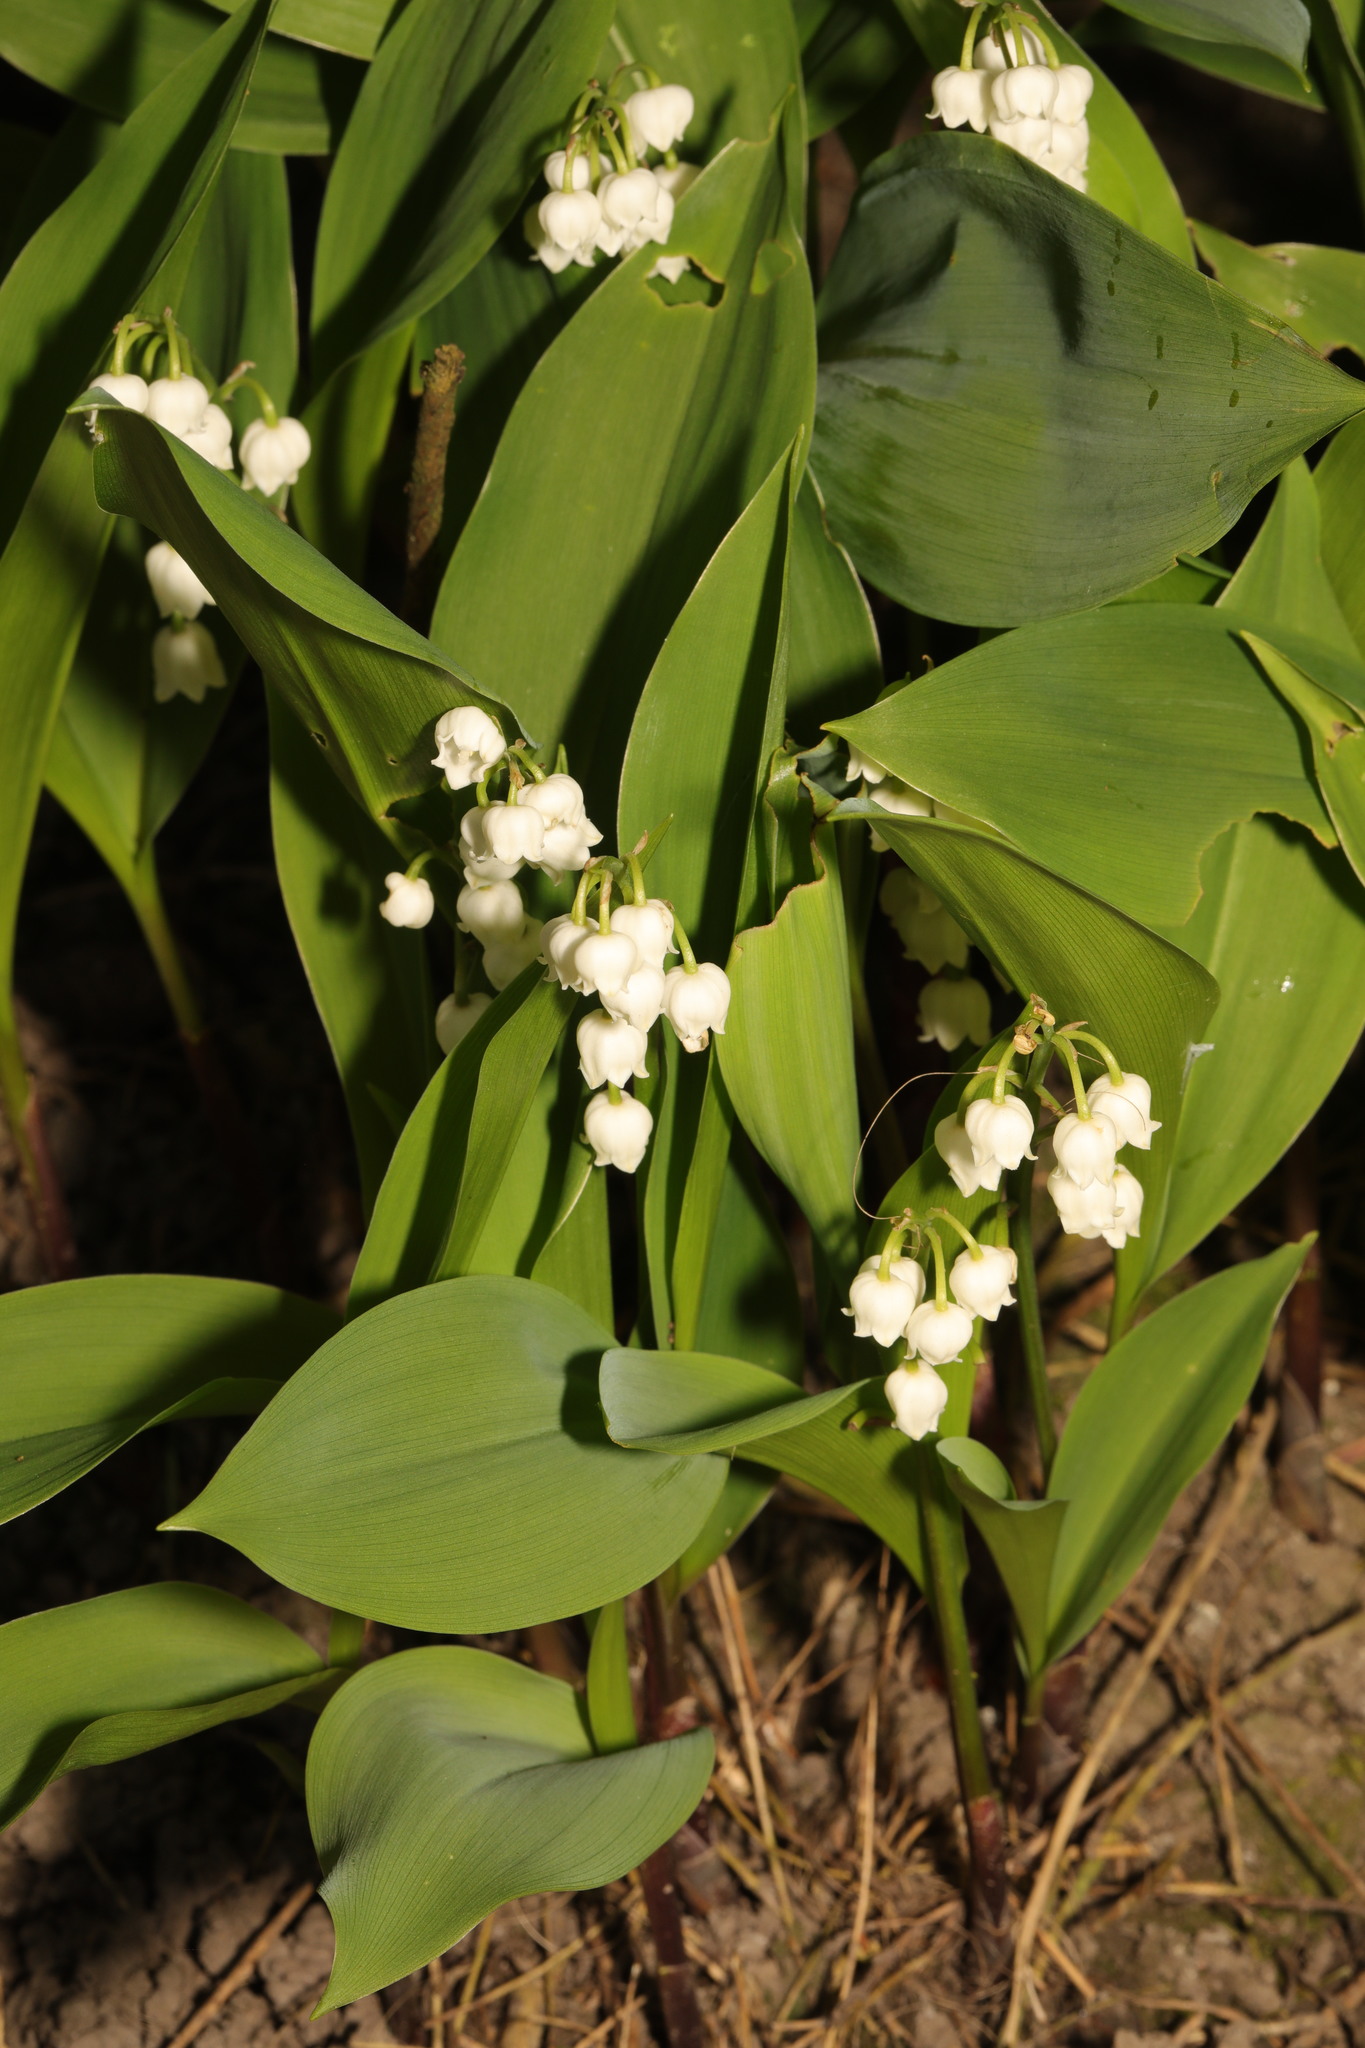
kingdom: Plantae
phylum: Tracheophyta
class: Liliopsida
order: Asparagales
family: Asparagaceae
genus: Convallaria
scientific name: Convallaria majalis
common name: Lily-of-the-valley
